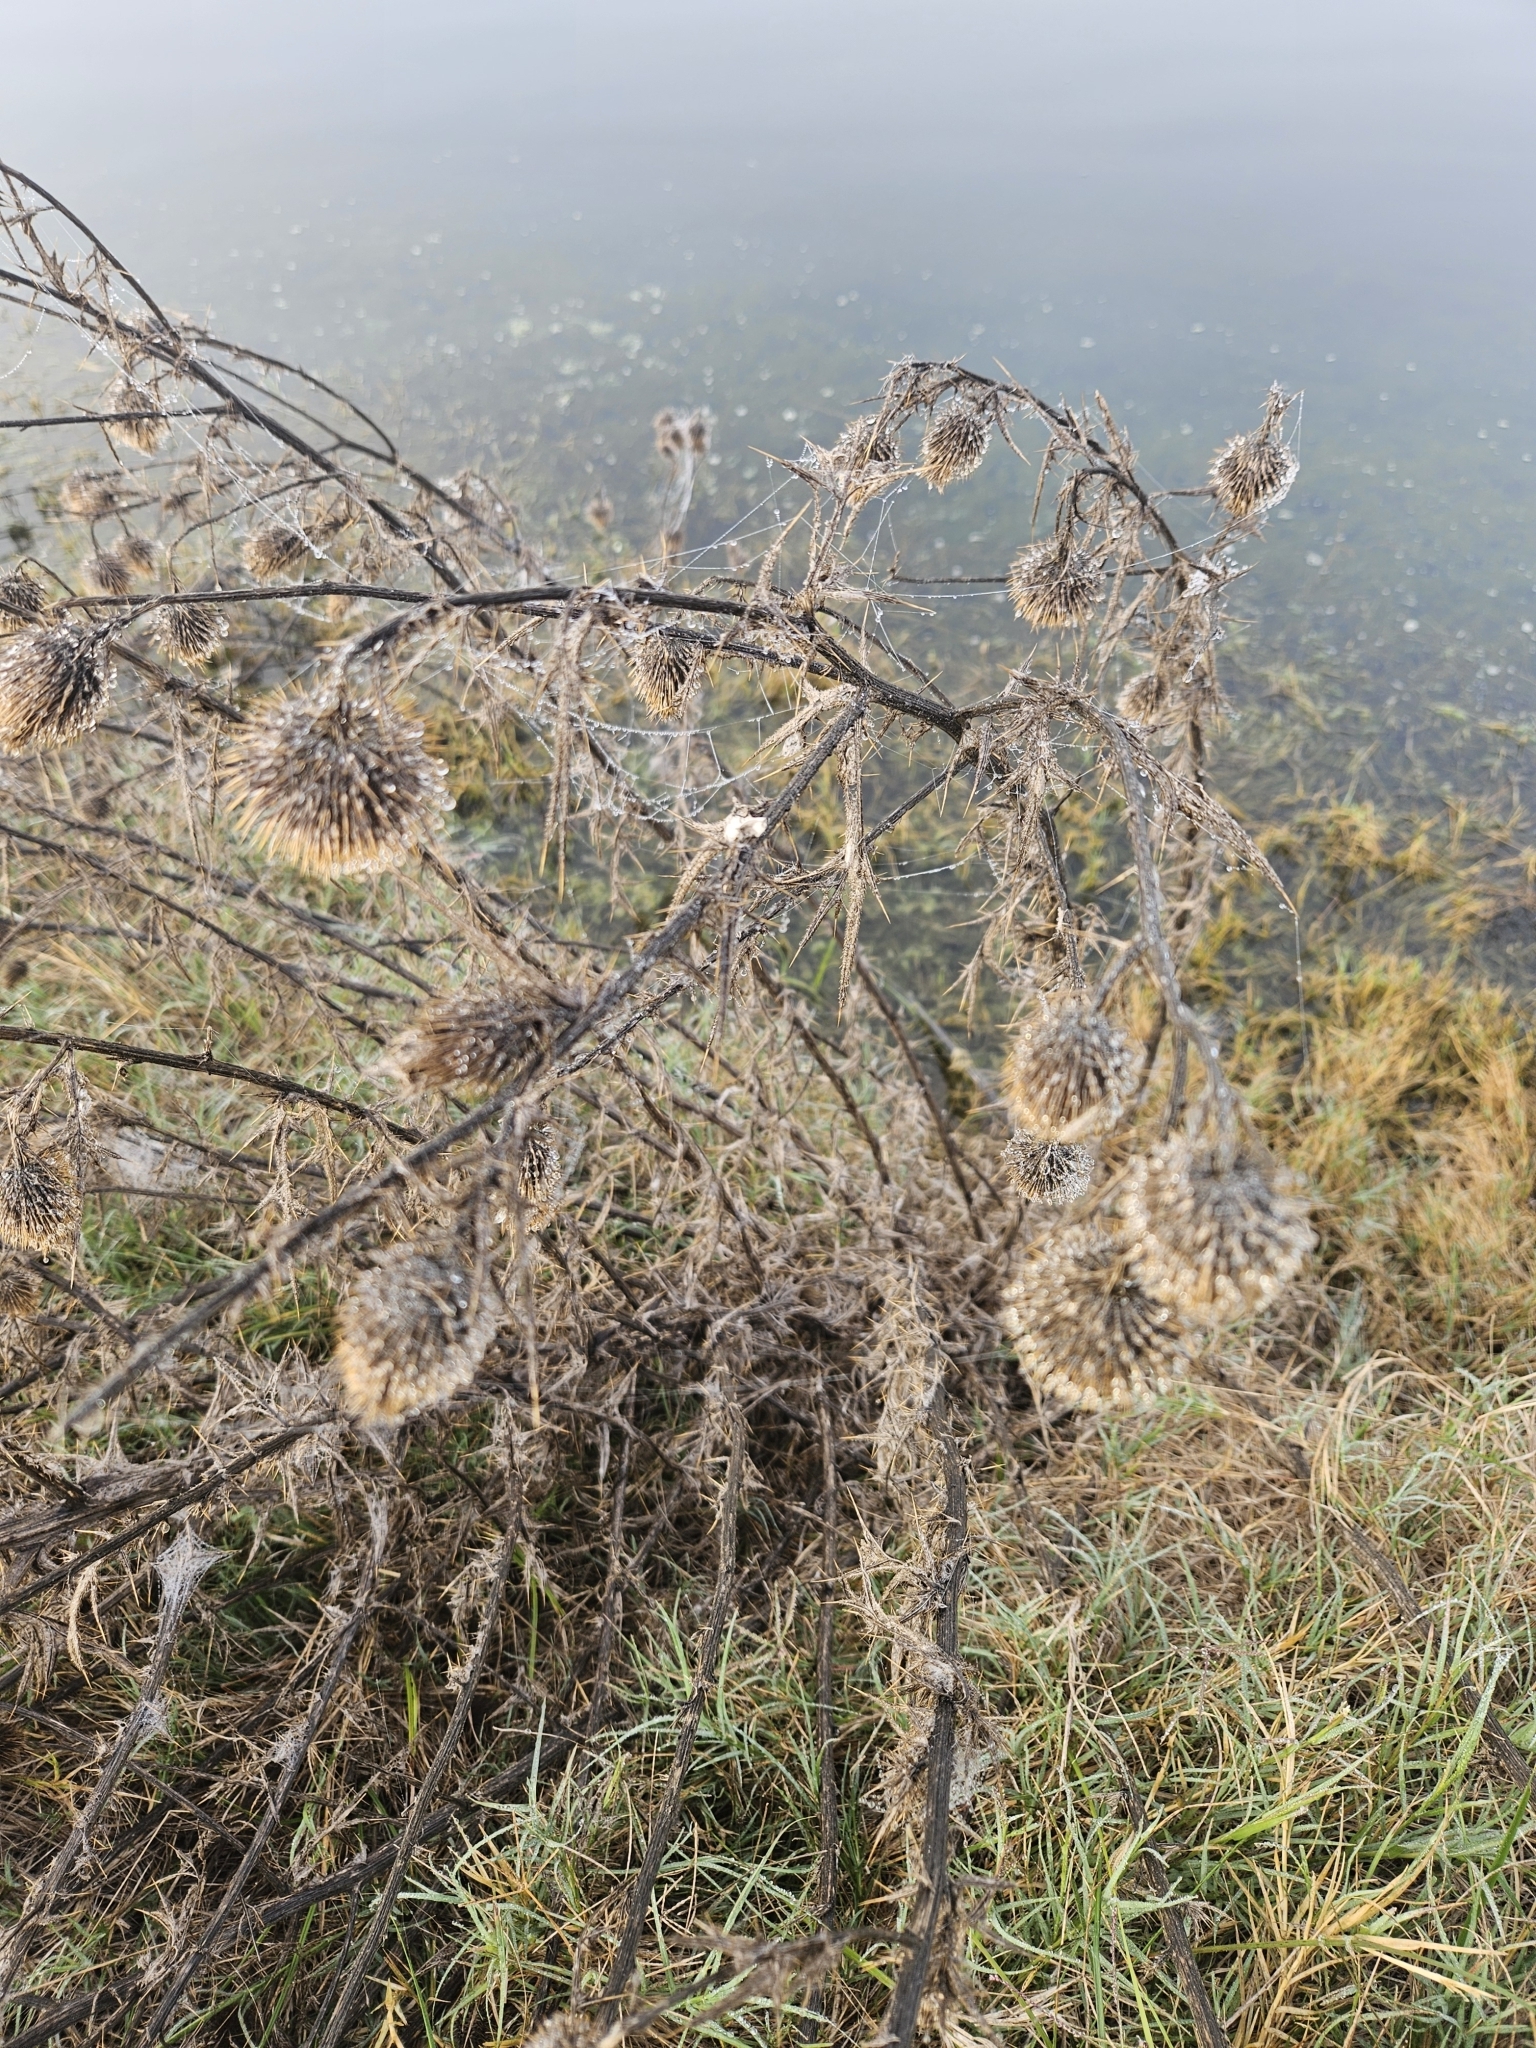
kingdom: Plantae
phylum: Tracheophyta
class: Magnoliopsida
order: Asterales
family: Asteraceae
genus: Cirsium
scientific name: Cirsium vulgare
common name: Bull thistle
